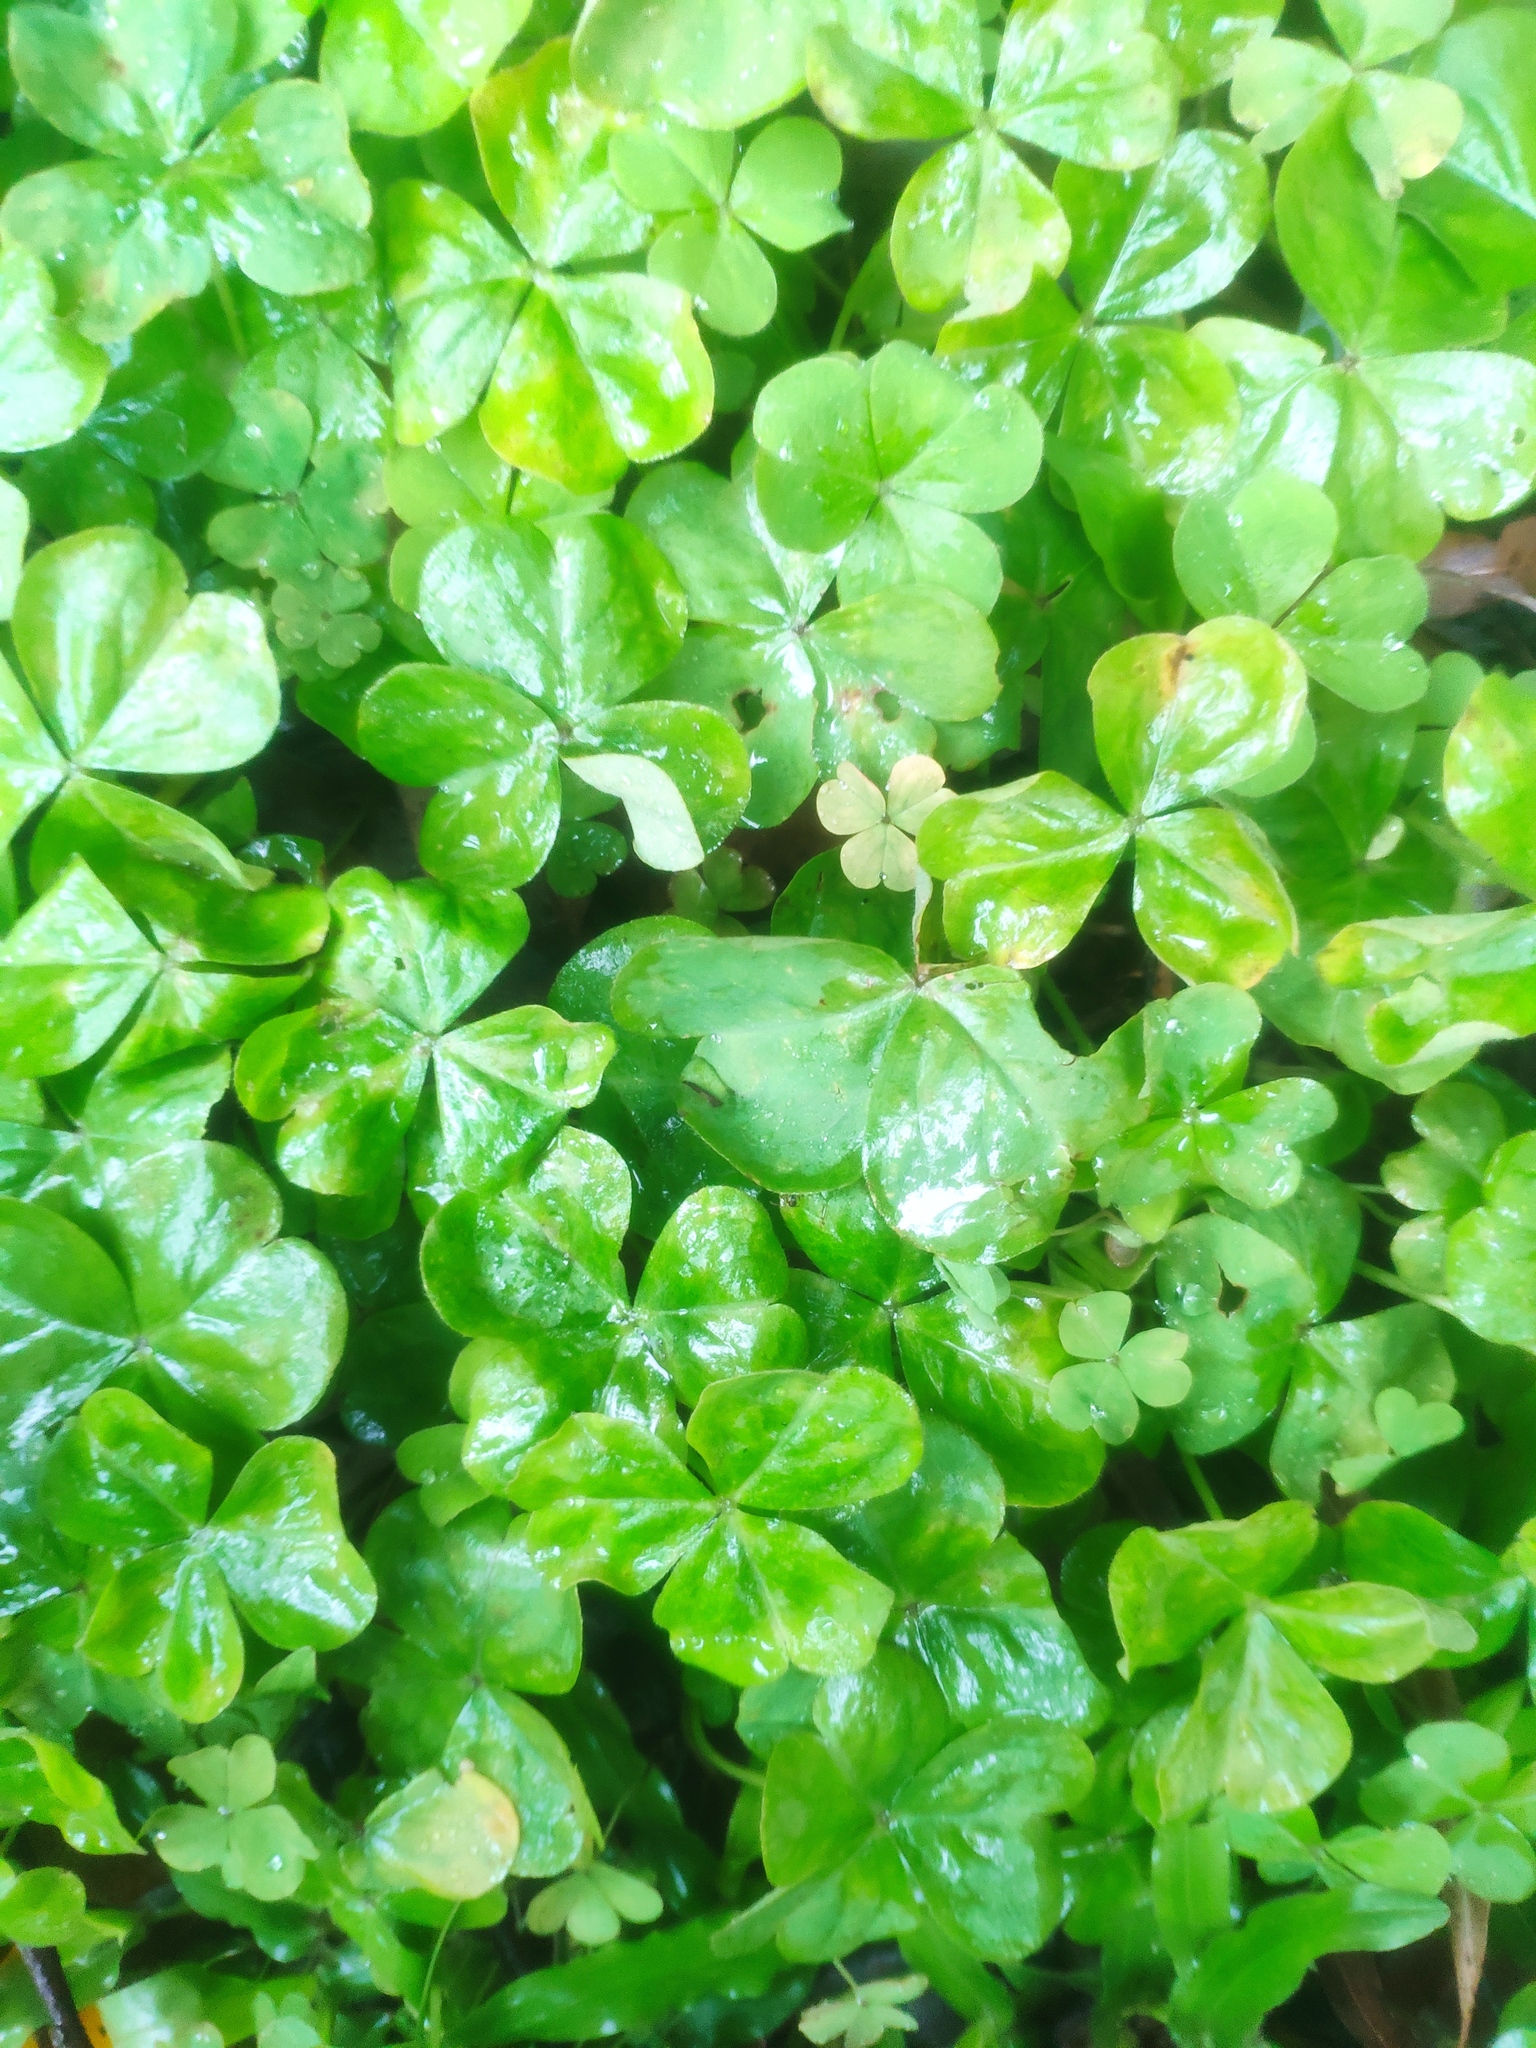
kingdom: Plantae
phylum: Tracheophyta
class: Magnoliopsida
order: Oxalidales
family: Oxalidaceae
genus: Oxalis
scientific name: Oxalis debilis
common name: Large-flowered pink-sorrel
